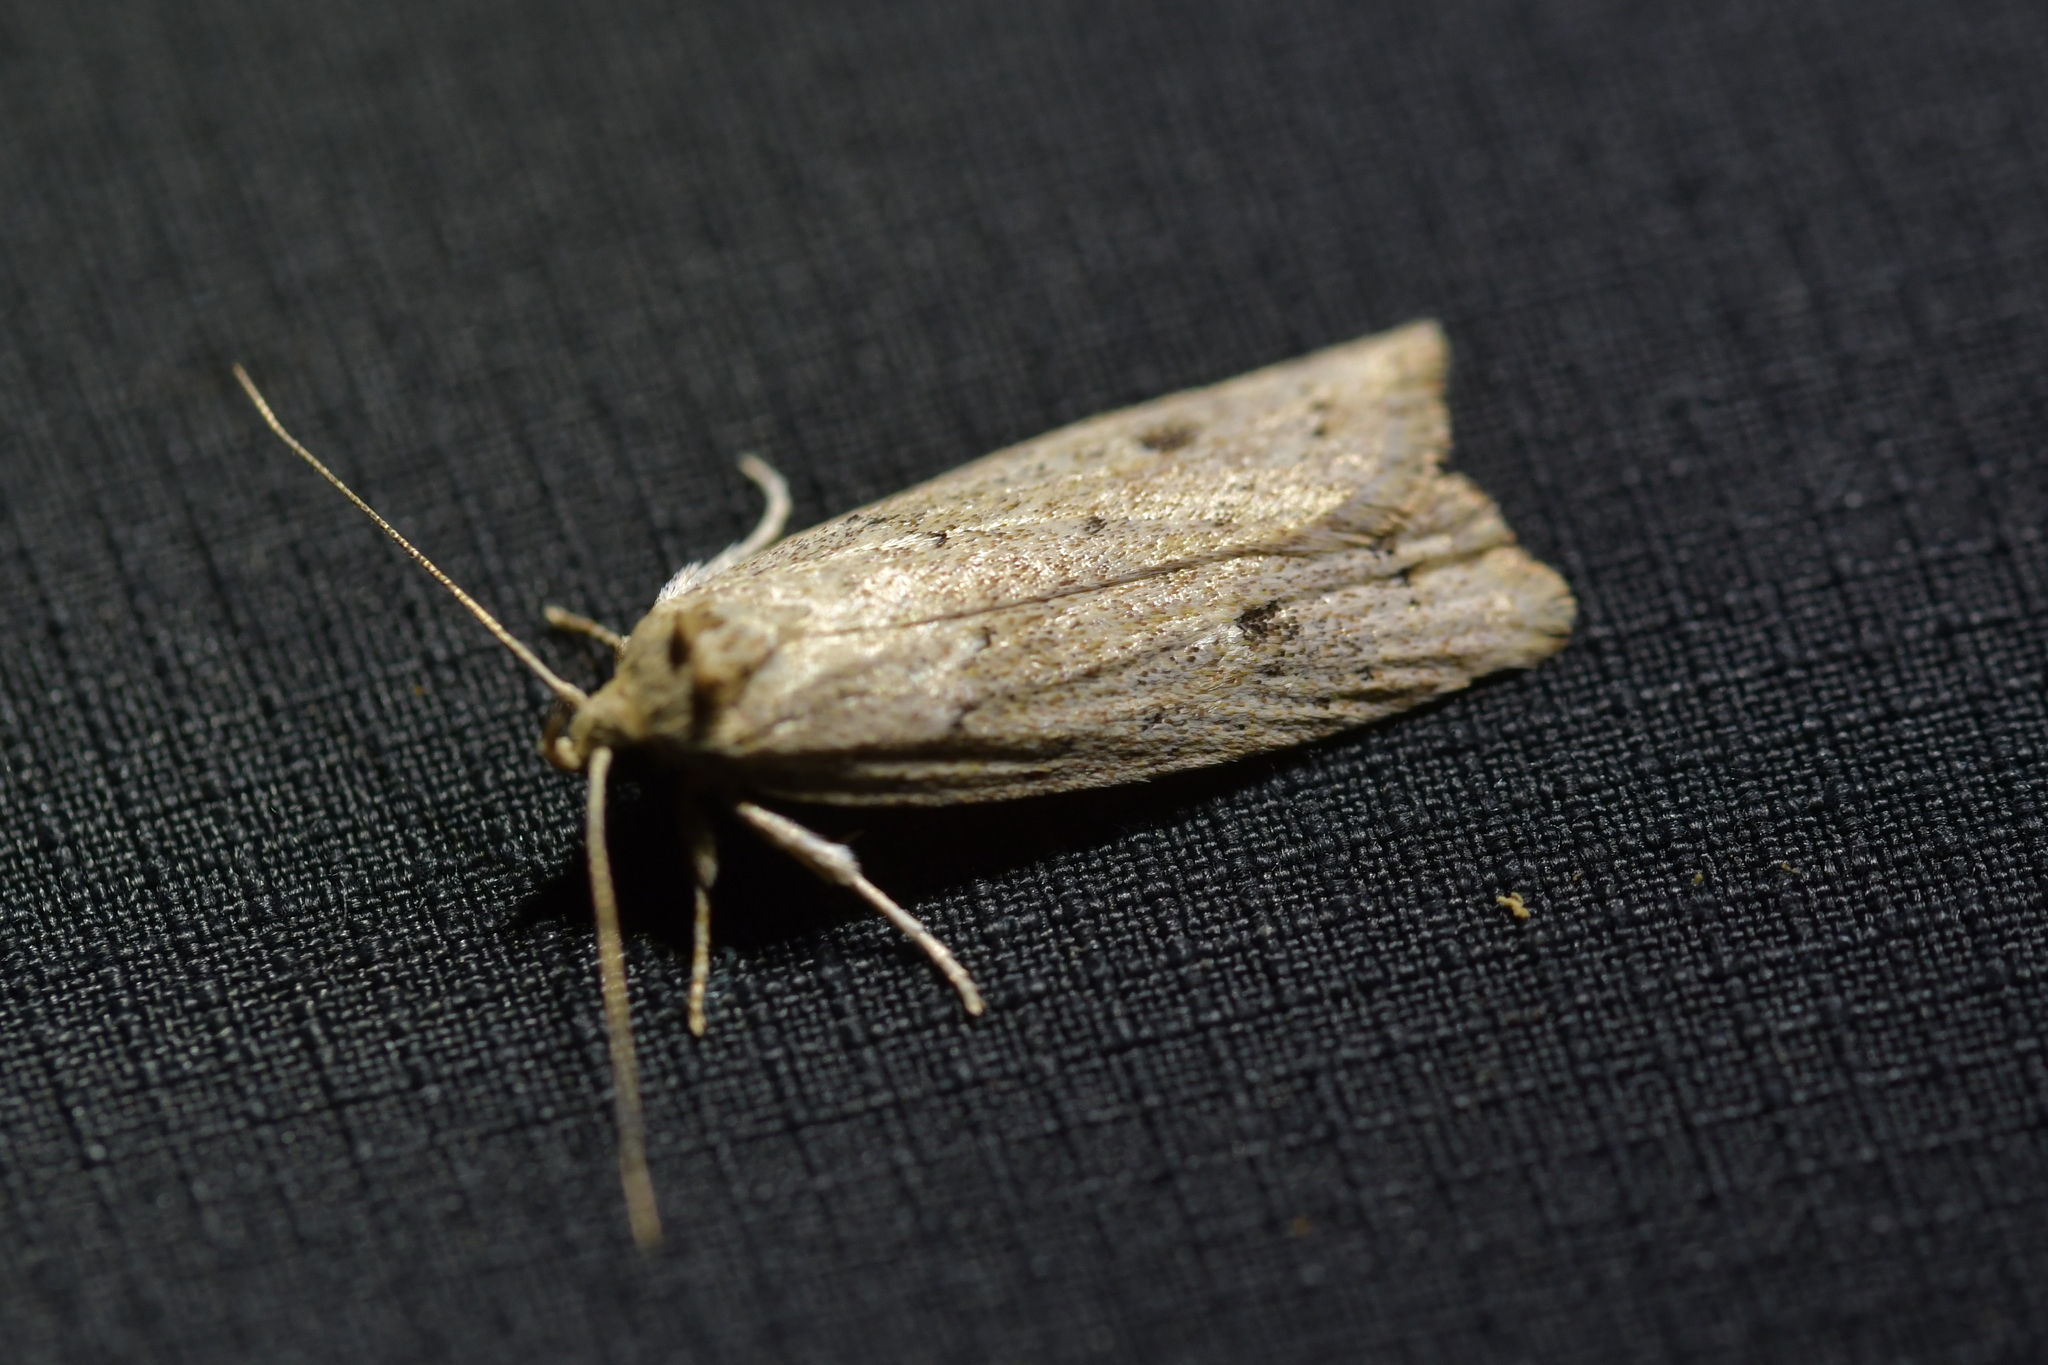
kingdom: Animalia
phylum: Arthropoda
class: Insecta
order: Lepidoptera
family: Depressariidae
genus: Agriophara
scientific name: Agriophara
